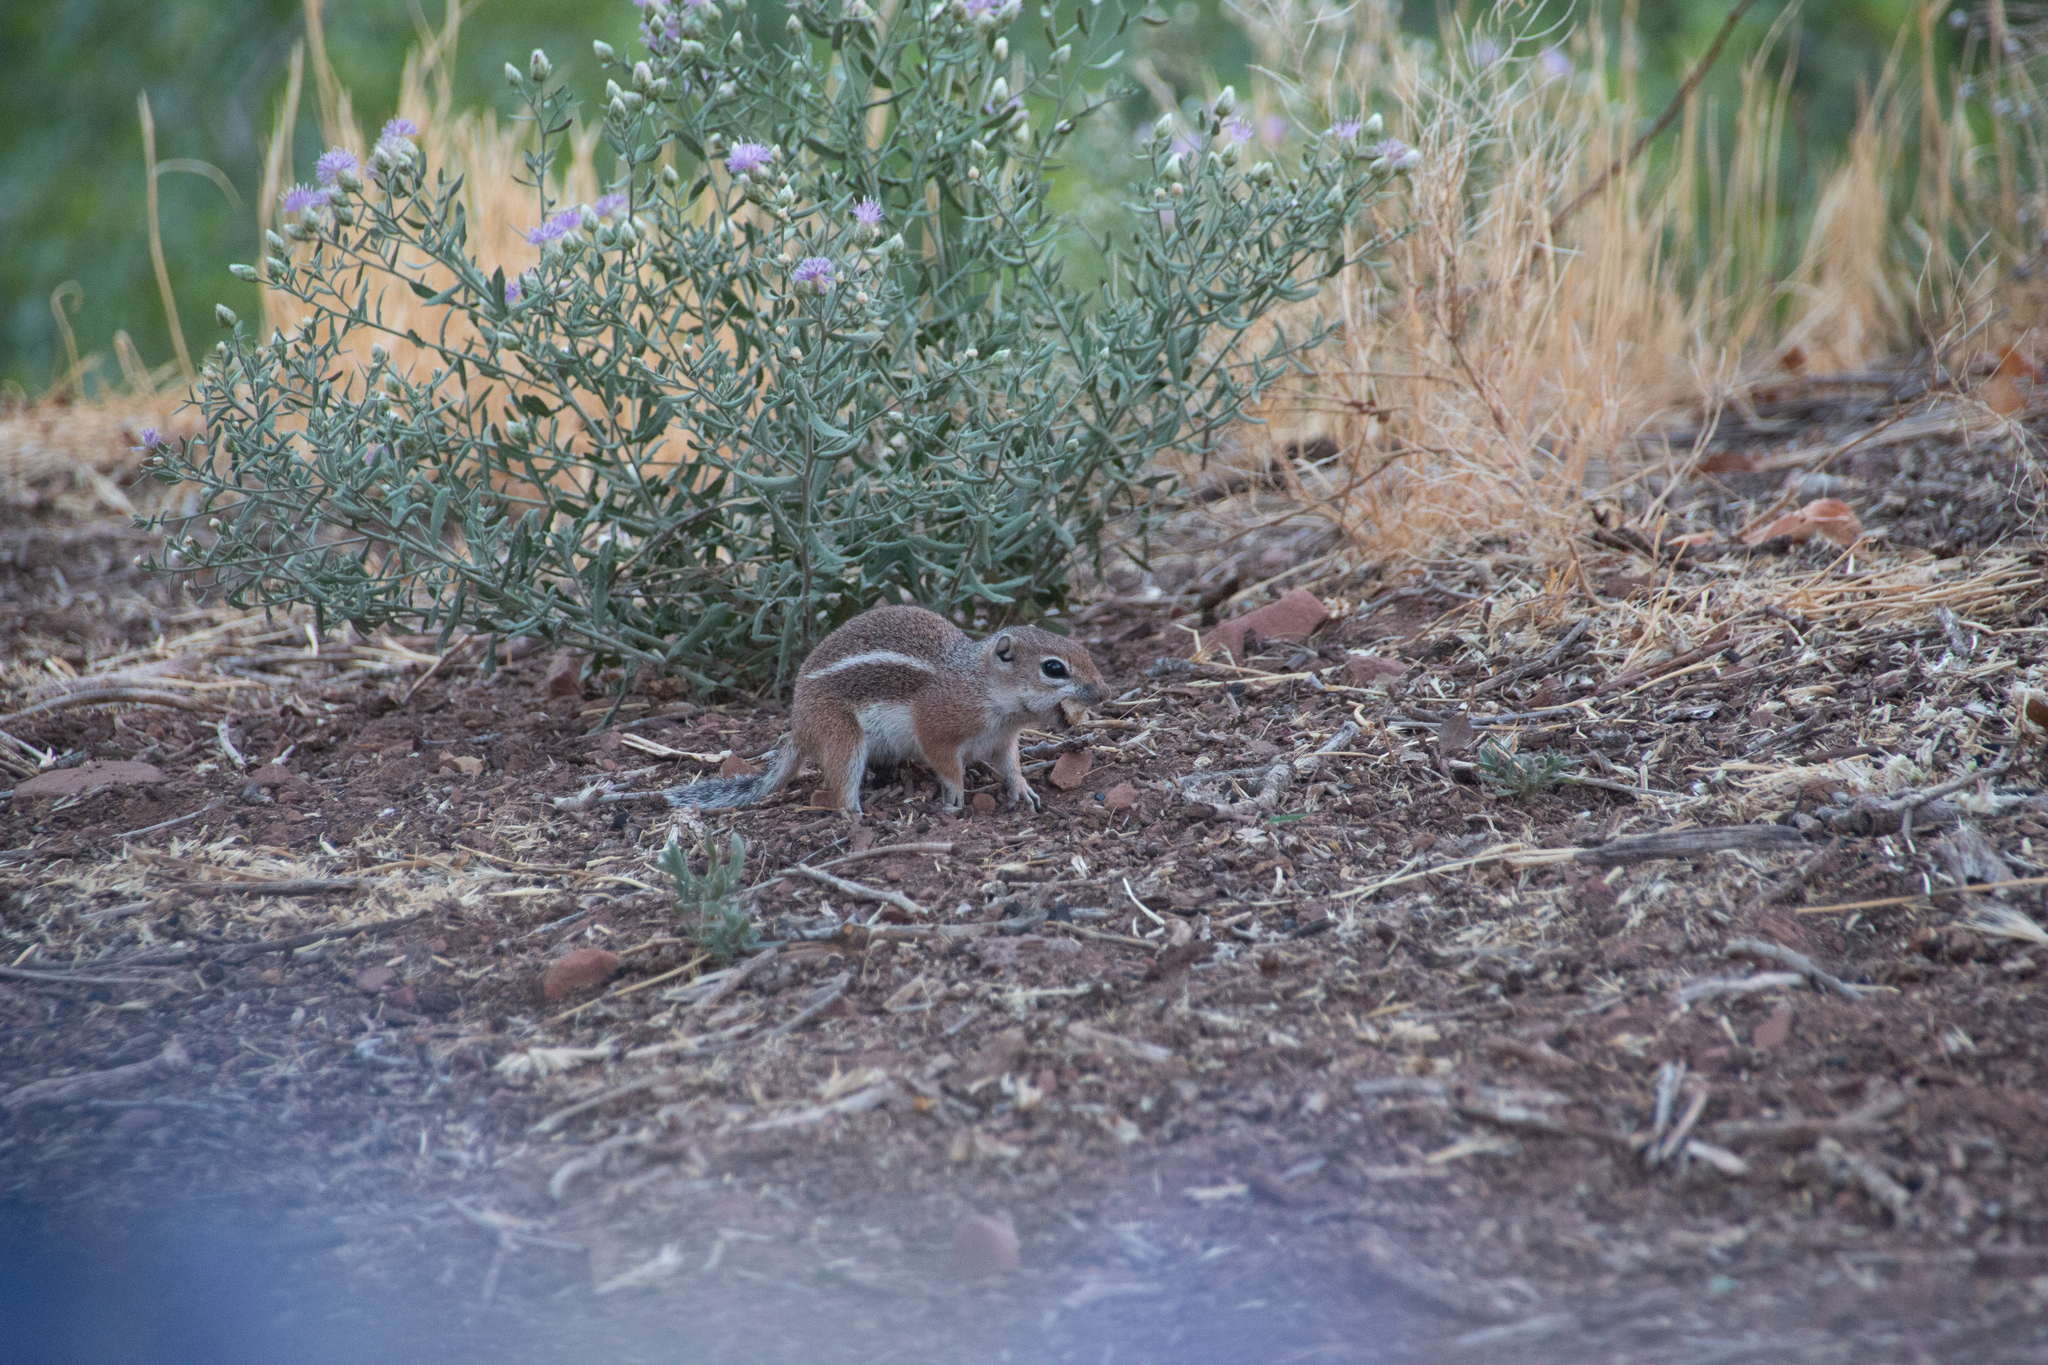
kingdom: Animalia
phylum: Chordata
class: Mammalia
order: Rodentia
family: Sciuridae
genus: Ammospermophilus
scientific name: Ammospermophilus leucurus
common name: White-tailed antelope squirrel
